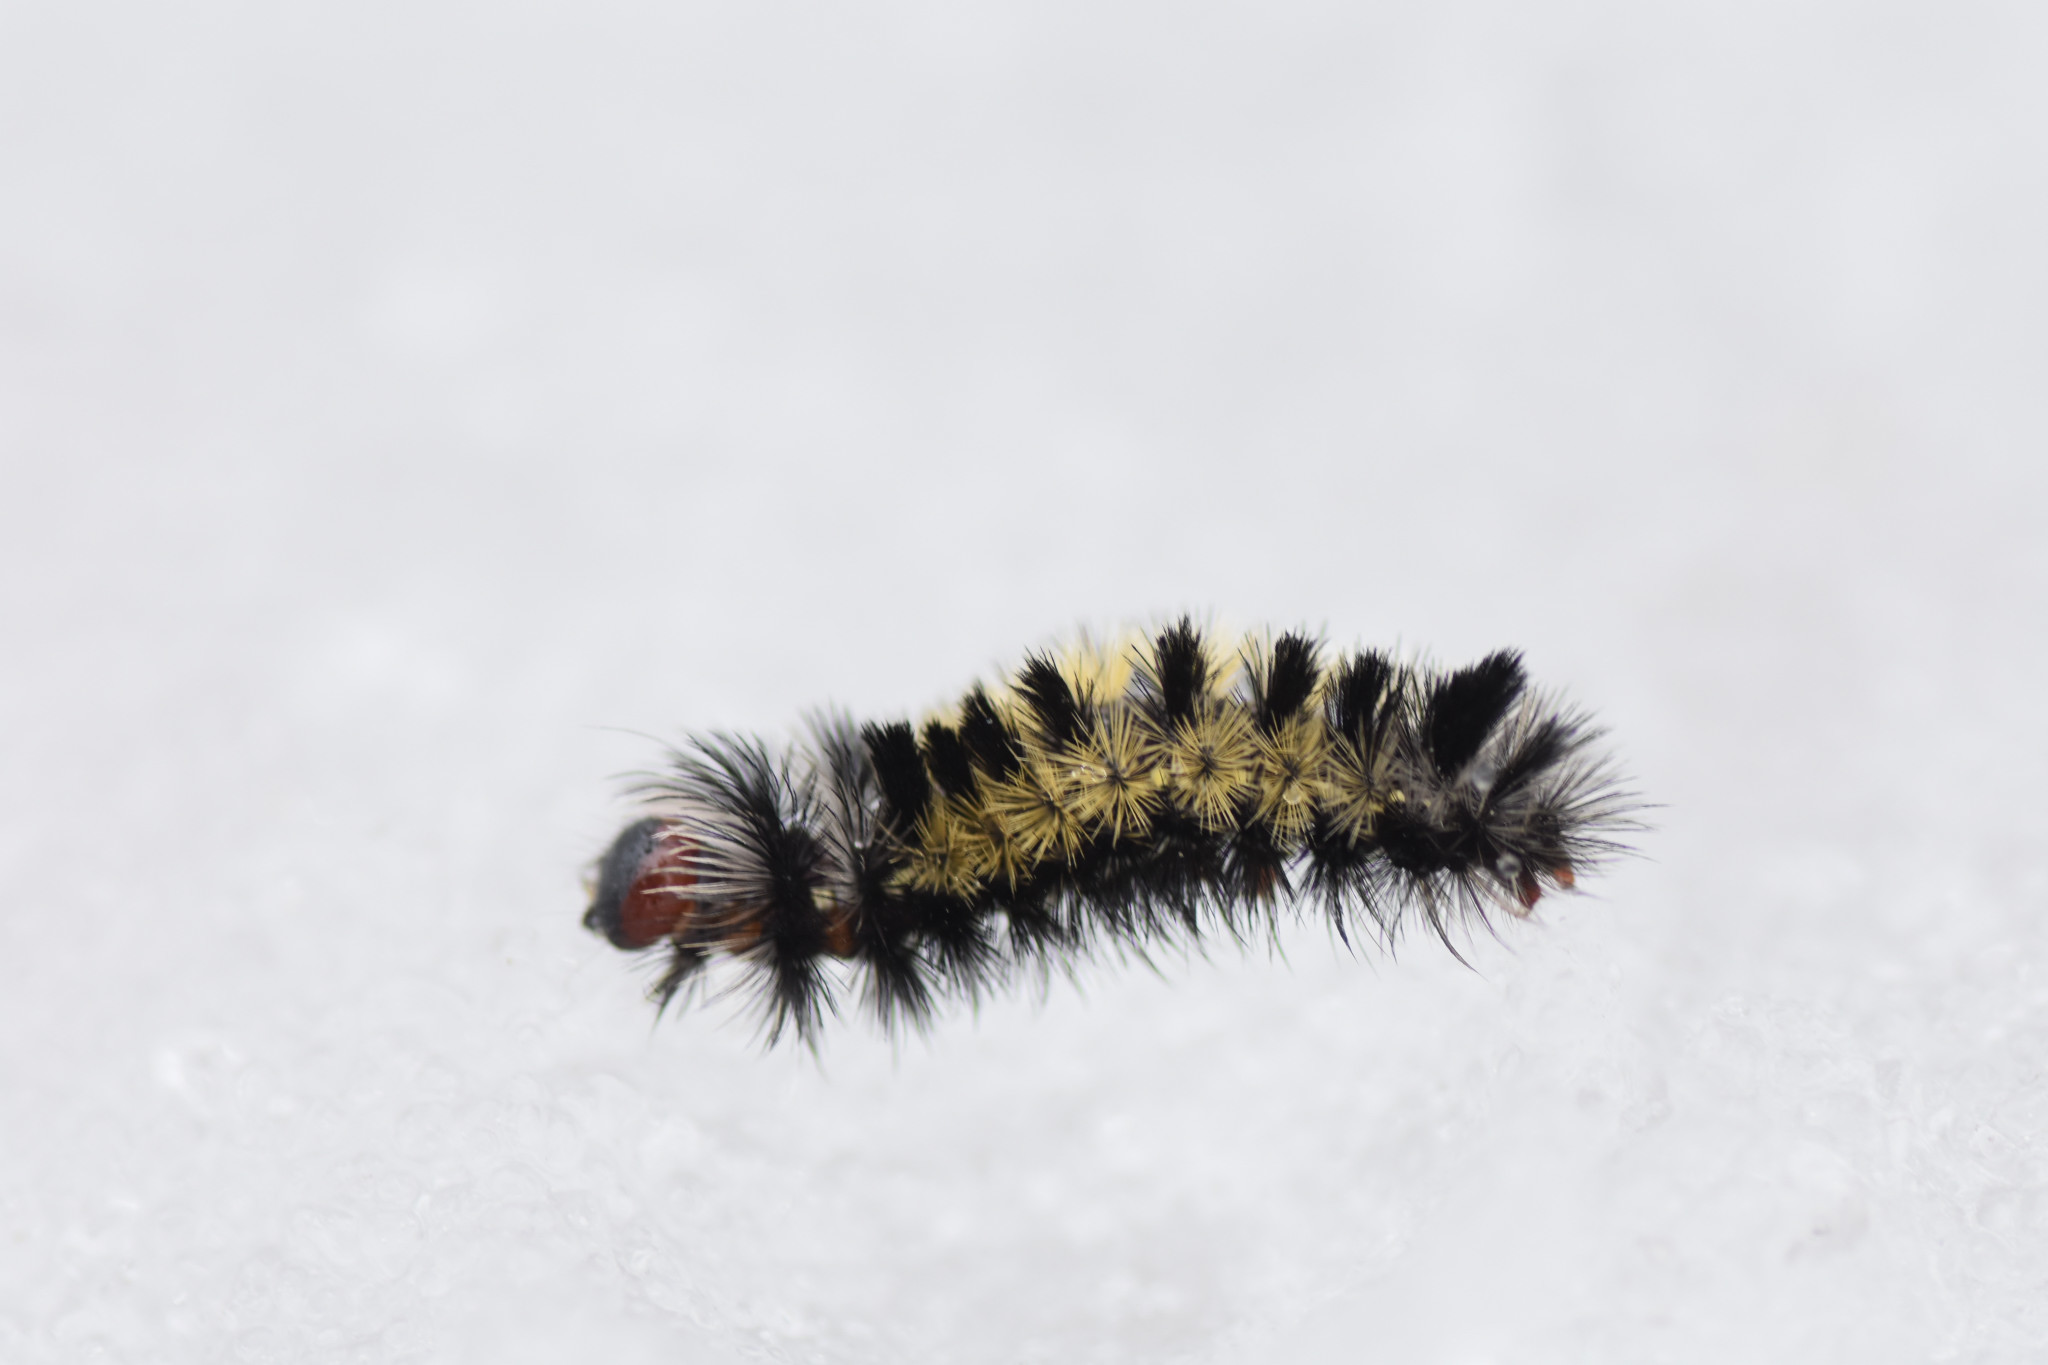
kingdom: Animalia
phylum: Arthropoda
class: Insecta
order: Lepidoptera
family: Erebidae
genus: Ctenucha
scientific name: Ctenucha virginica
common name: Virginia ctenucha moth
